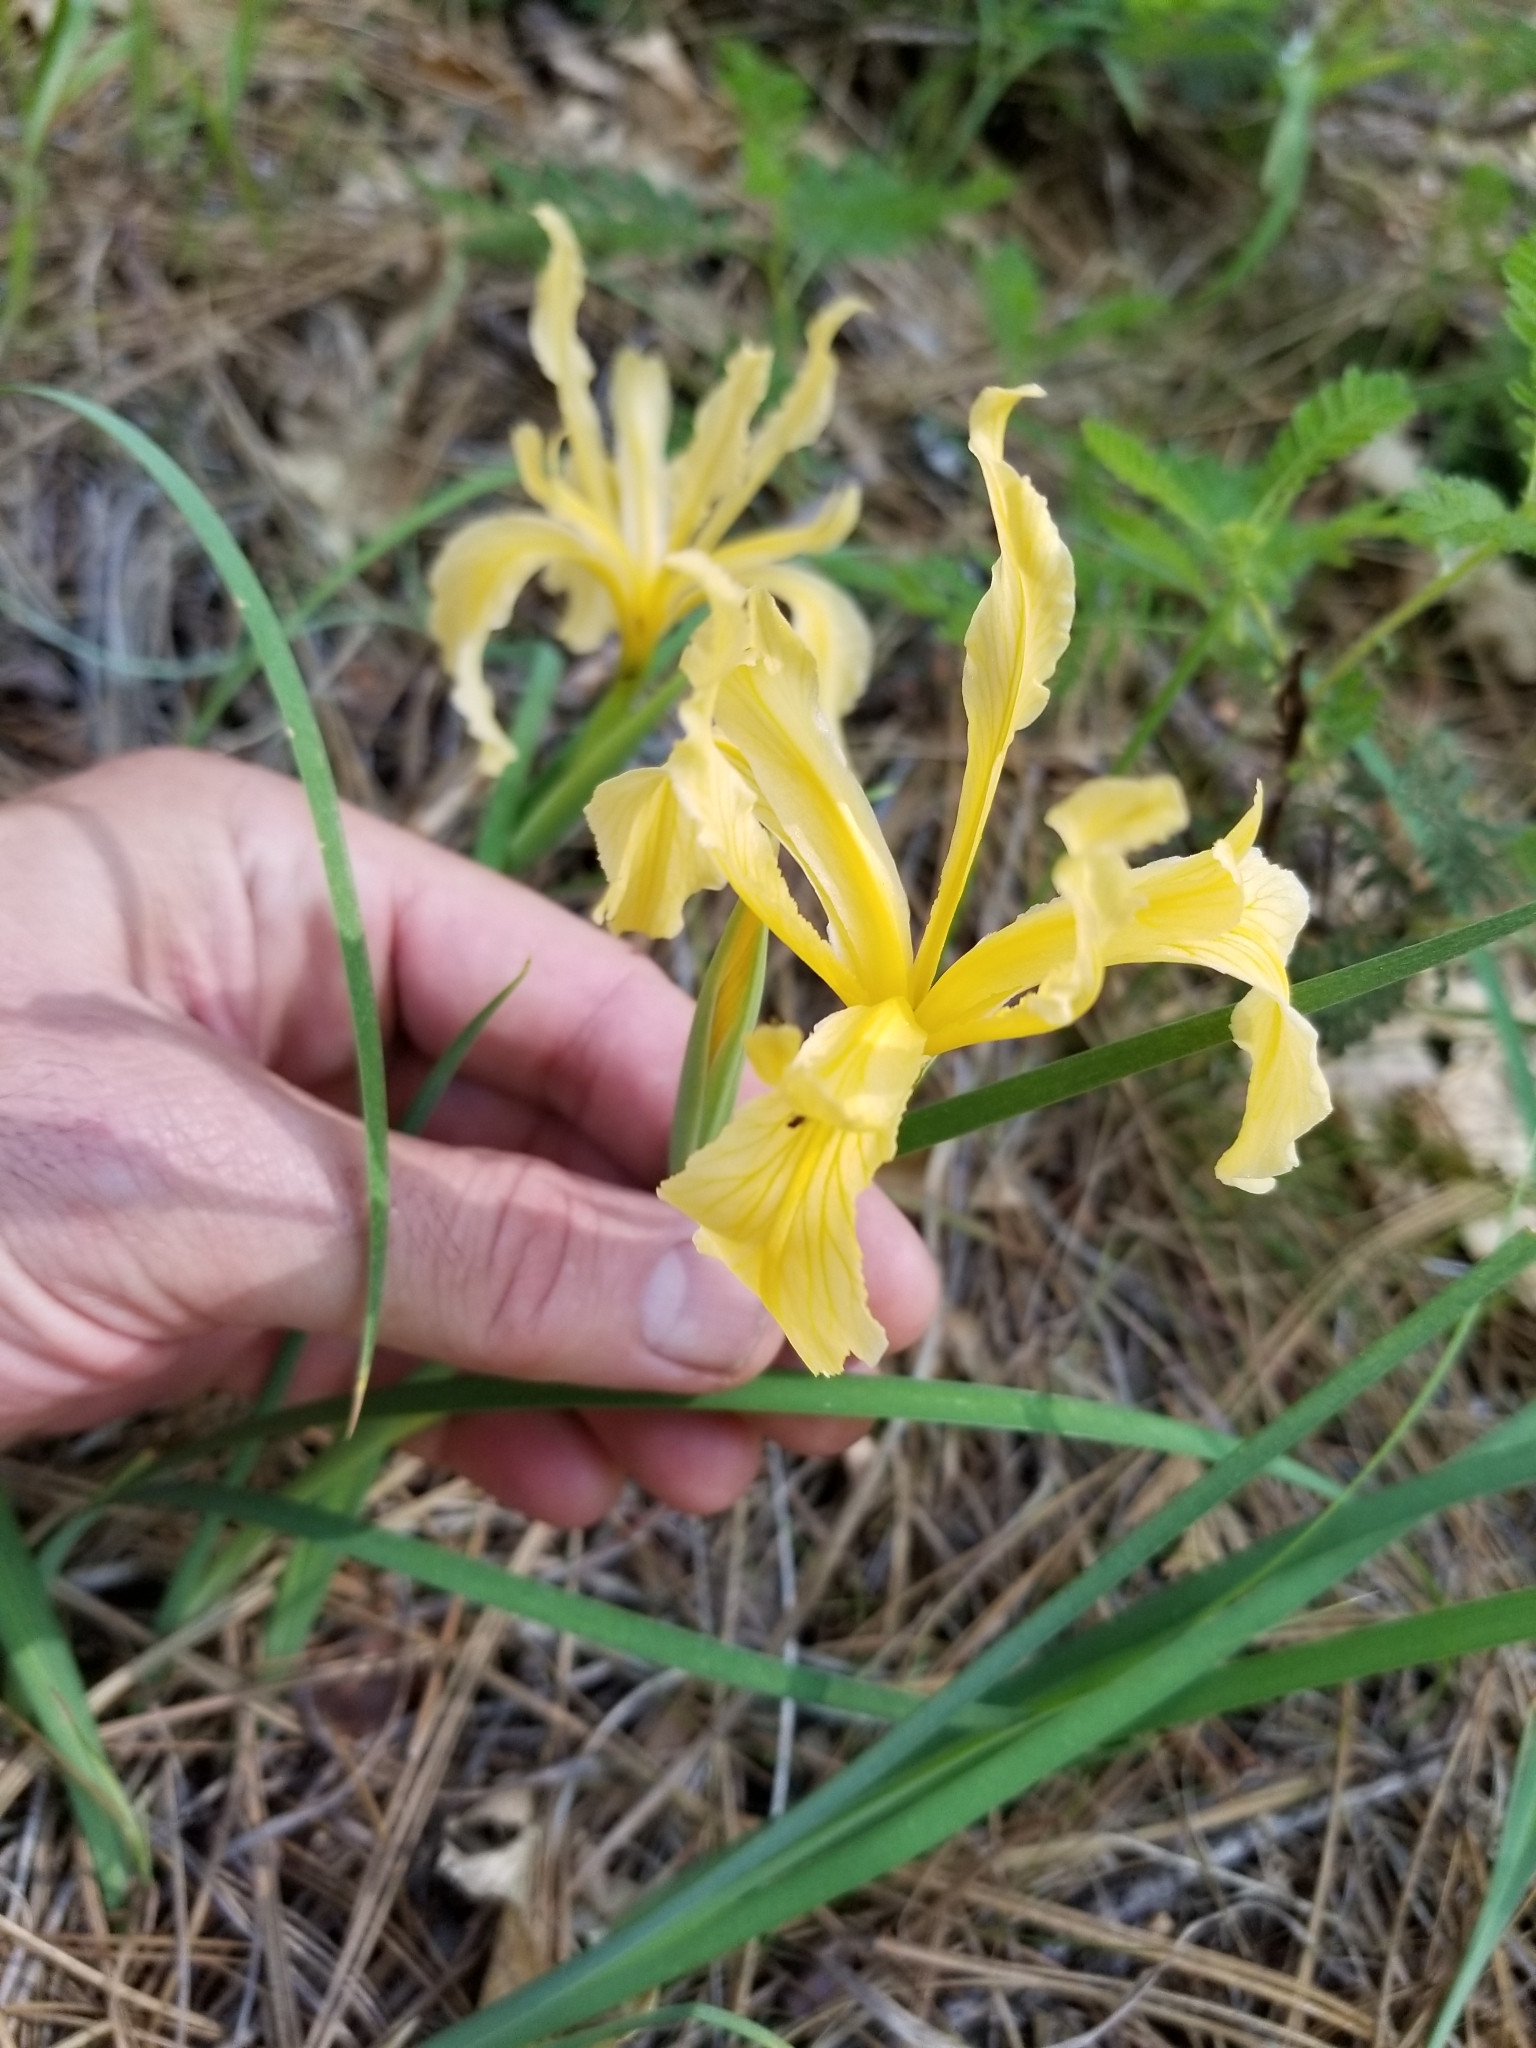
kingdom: Plantae
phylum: Tracheophyta
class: Liliopsida
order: Asparagales
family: Iridaceae
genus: Iris
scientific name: Iris hartwegii
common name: Sierra iris
